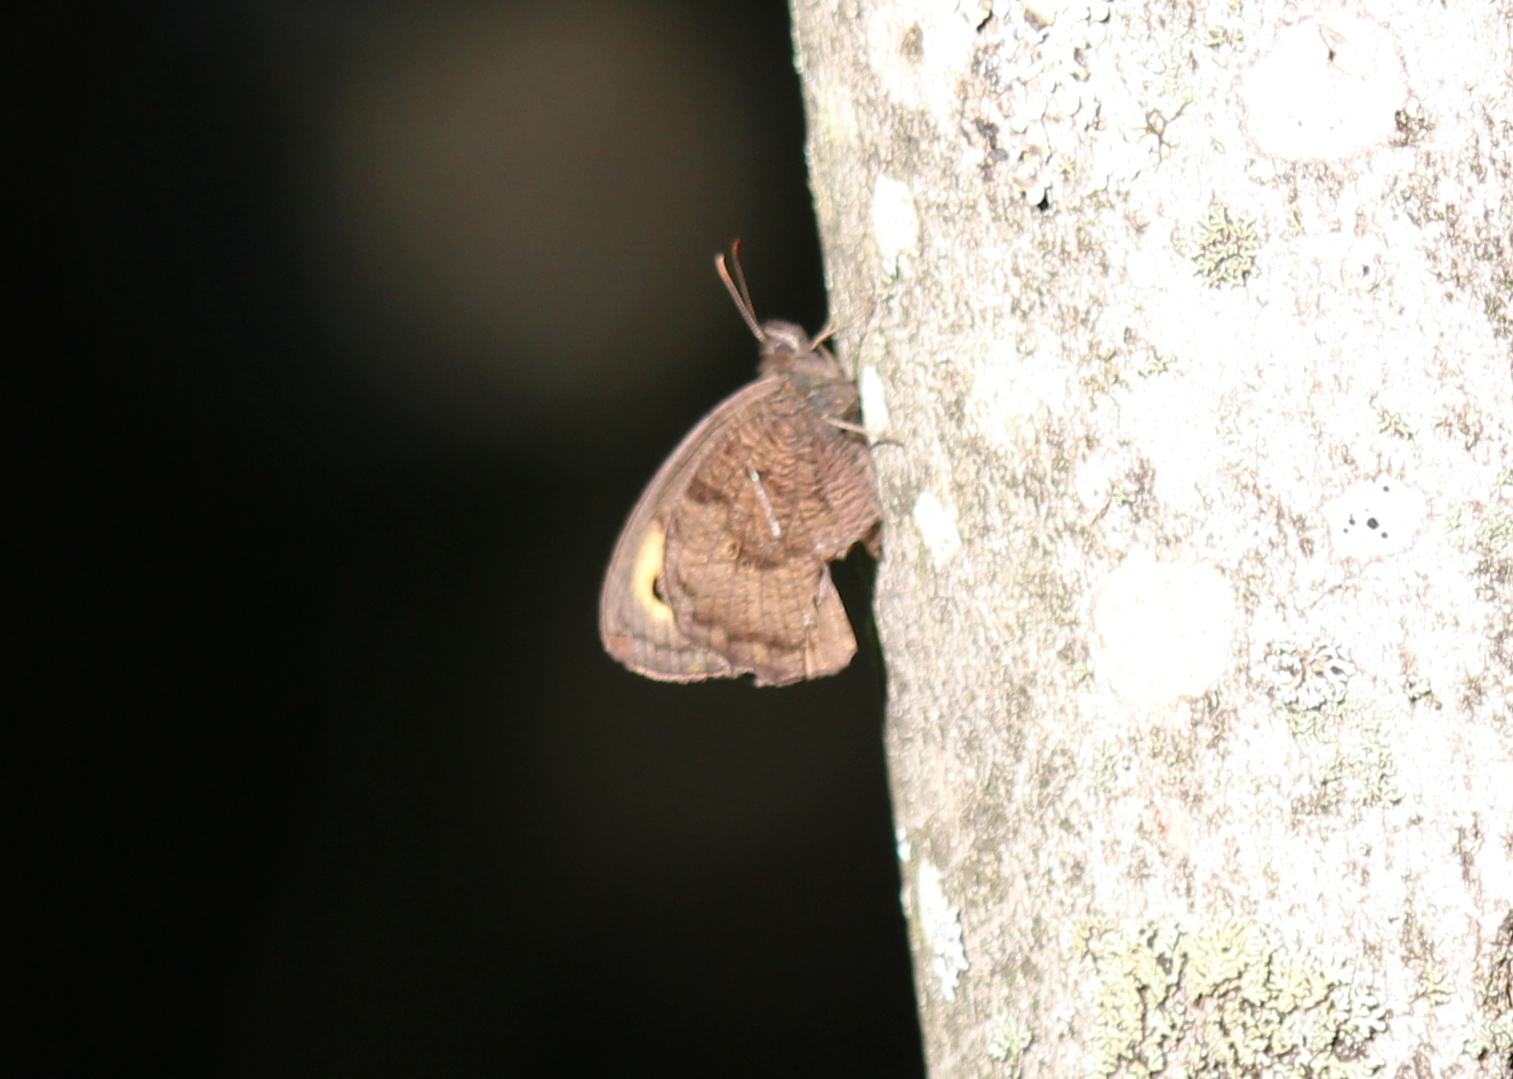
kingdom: Animalia
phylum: Arthropoda
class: Insecta
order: Lepidoptera
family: Nymphalidae
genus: Cercyonis
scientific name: Cercyonis pegala
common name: Common wood-nymph
